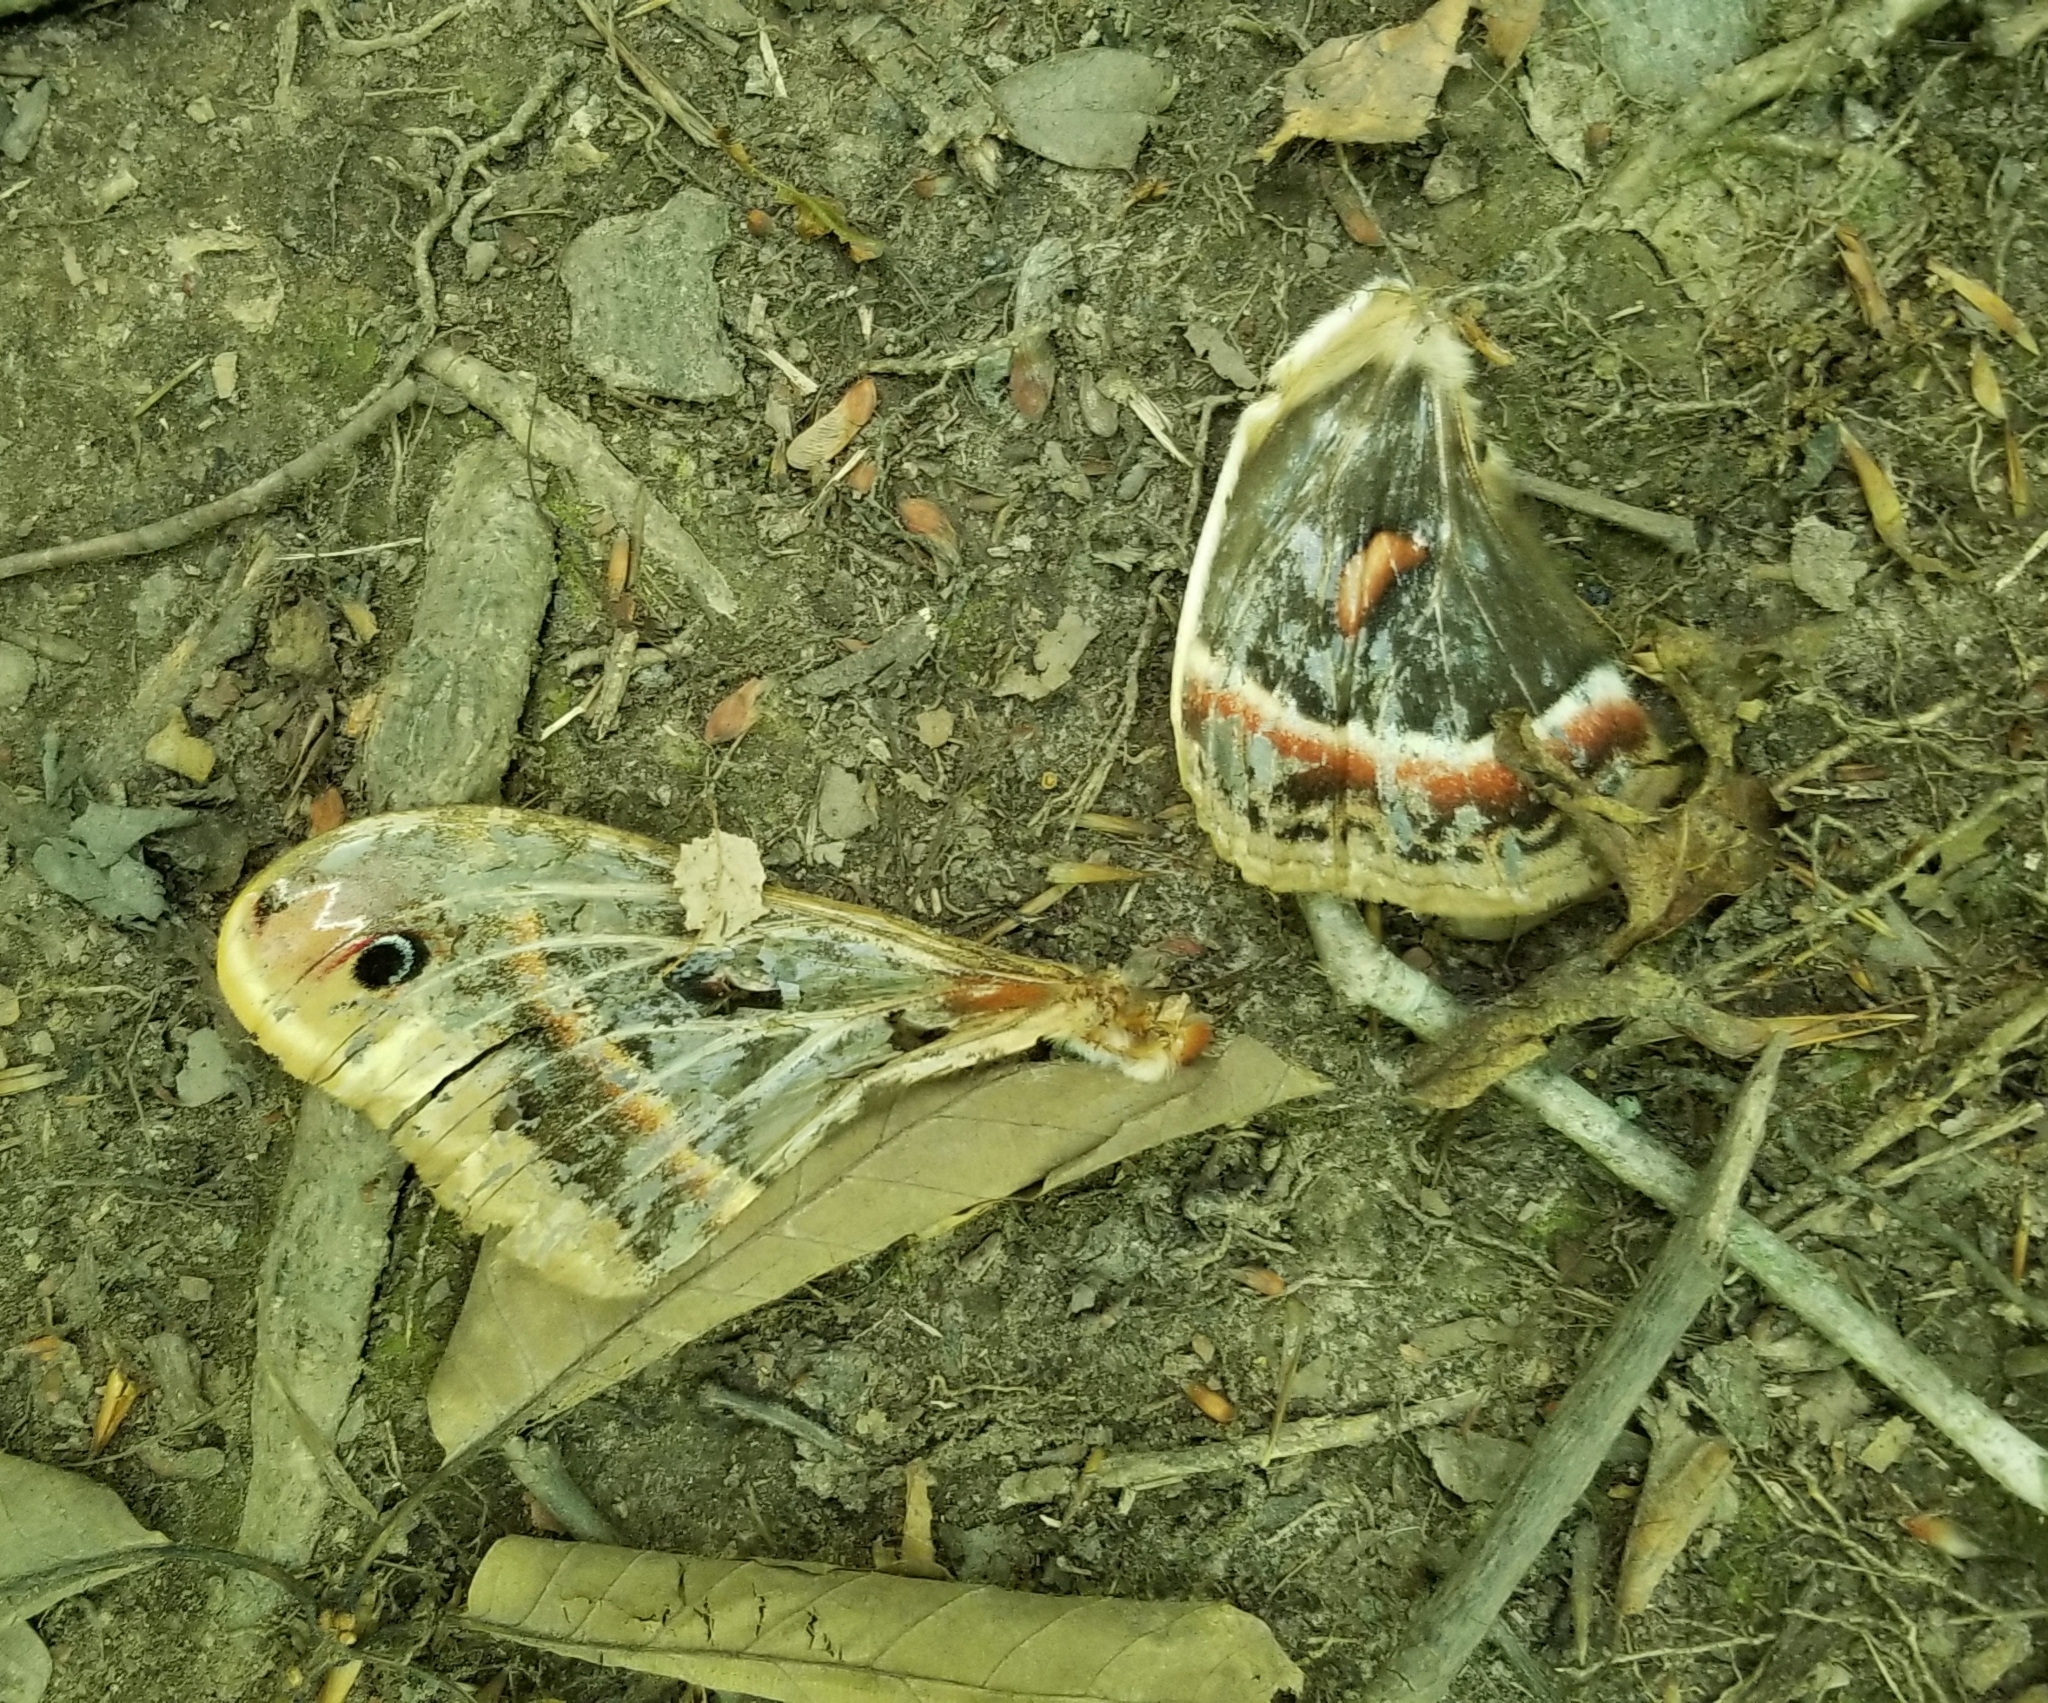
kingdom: Animalia
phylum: Arthropoda
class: Insecta
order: Lepidoptera
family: Saturniidae
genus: Hyalophora
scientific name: Hyalophora cecropia
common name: Cecropia silkmoth
